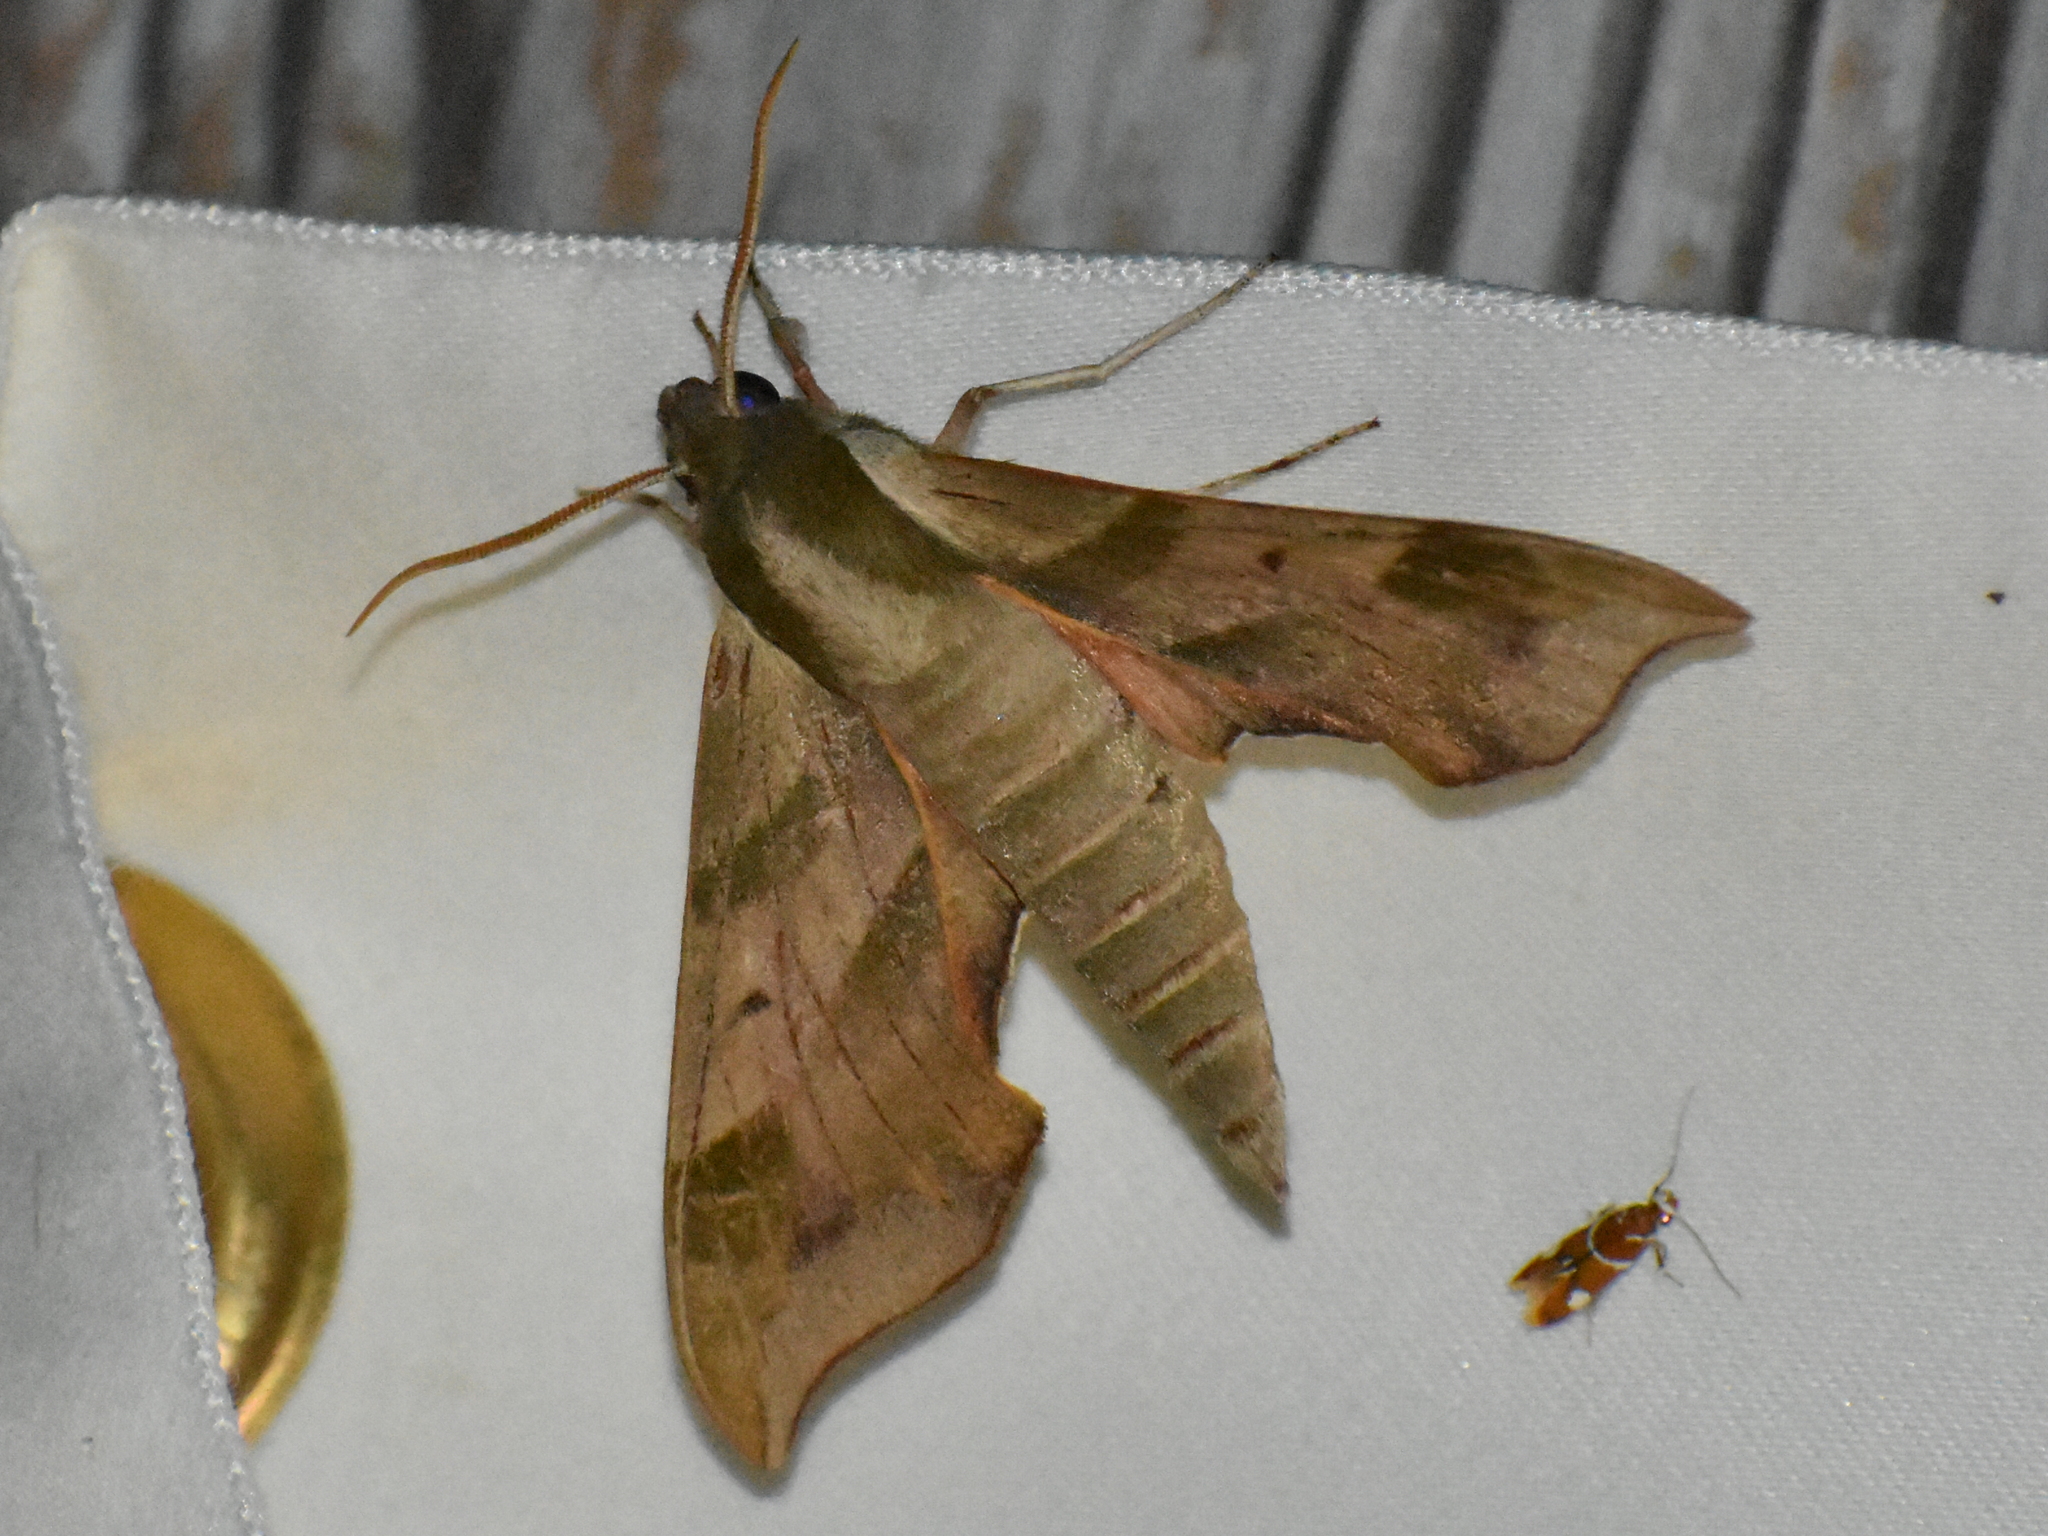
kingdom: Animalia
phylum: Arthropoda
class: Insecta
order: Lepidoptera
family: Sphingidae
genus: Darapsa
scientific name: Darapsa myron
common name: Hog sphinx
